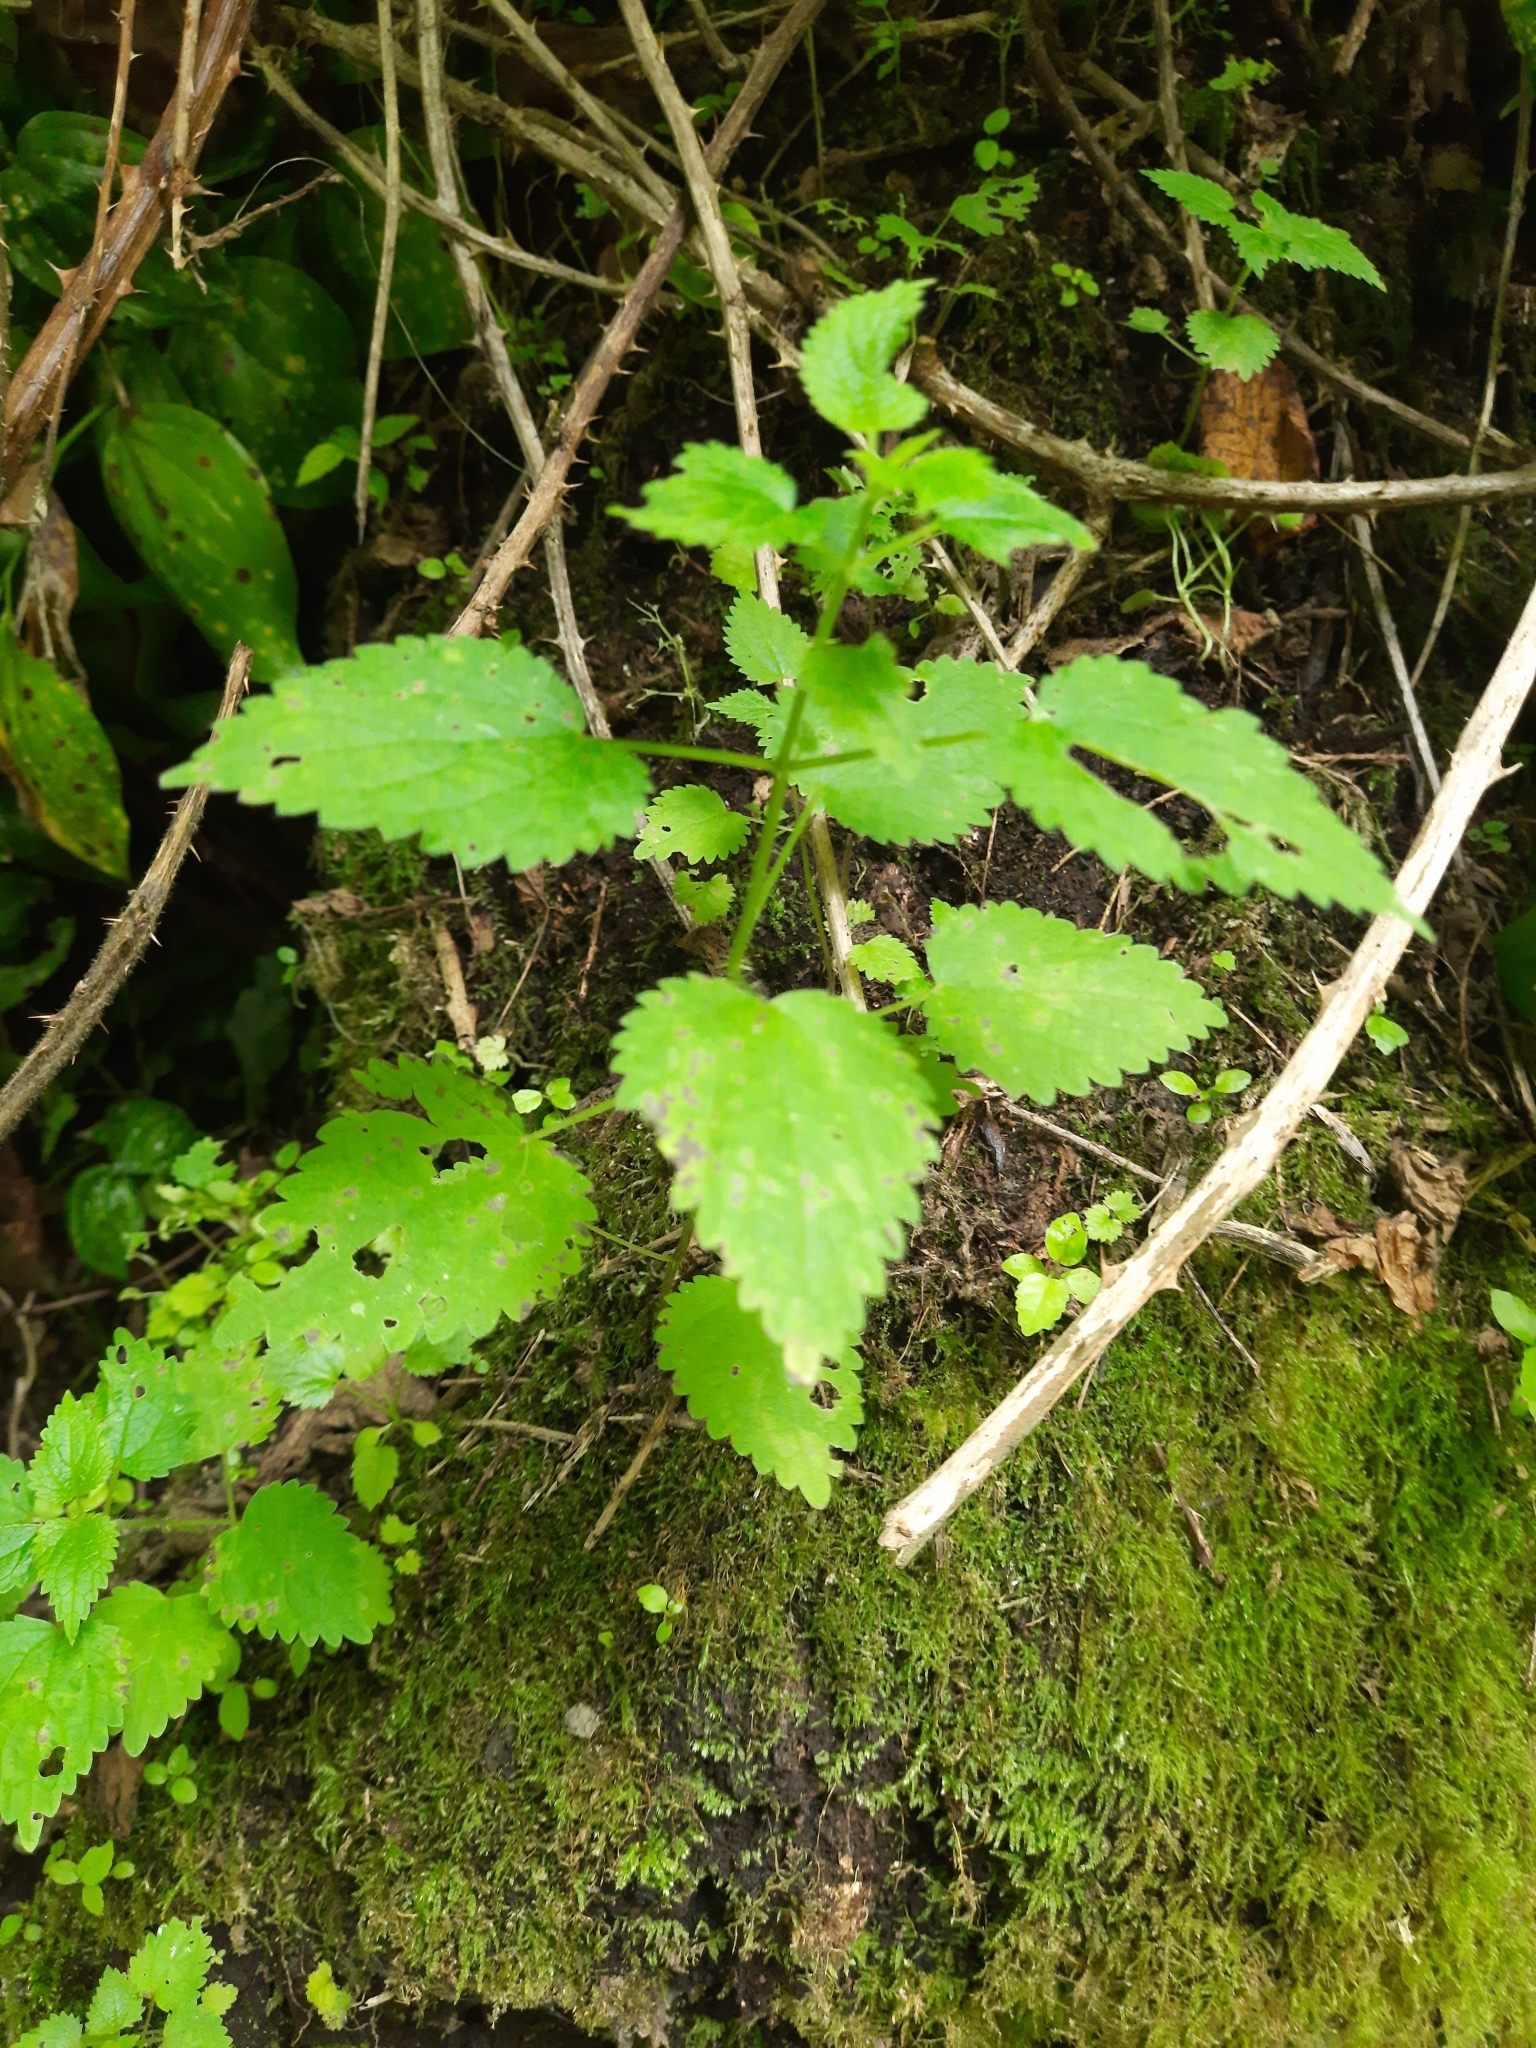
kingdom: Plantae
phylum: Tracheophyta
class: Magnoliopsida
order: Rosales
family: Urticaceae
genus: Urtica
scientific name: Urtica dioica
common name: Common nettle
